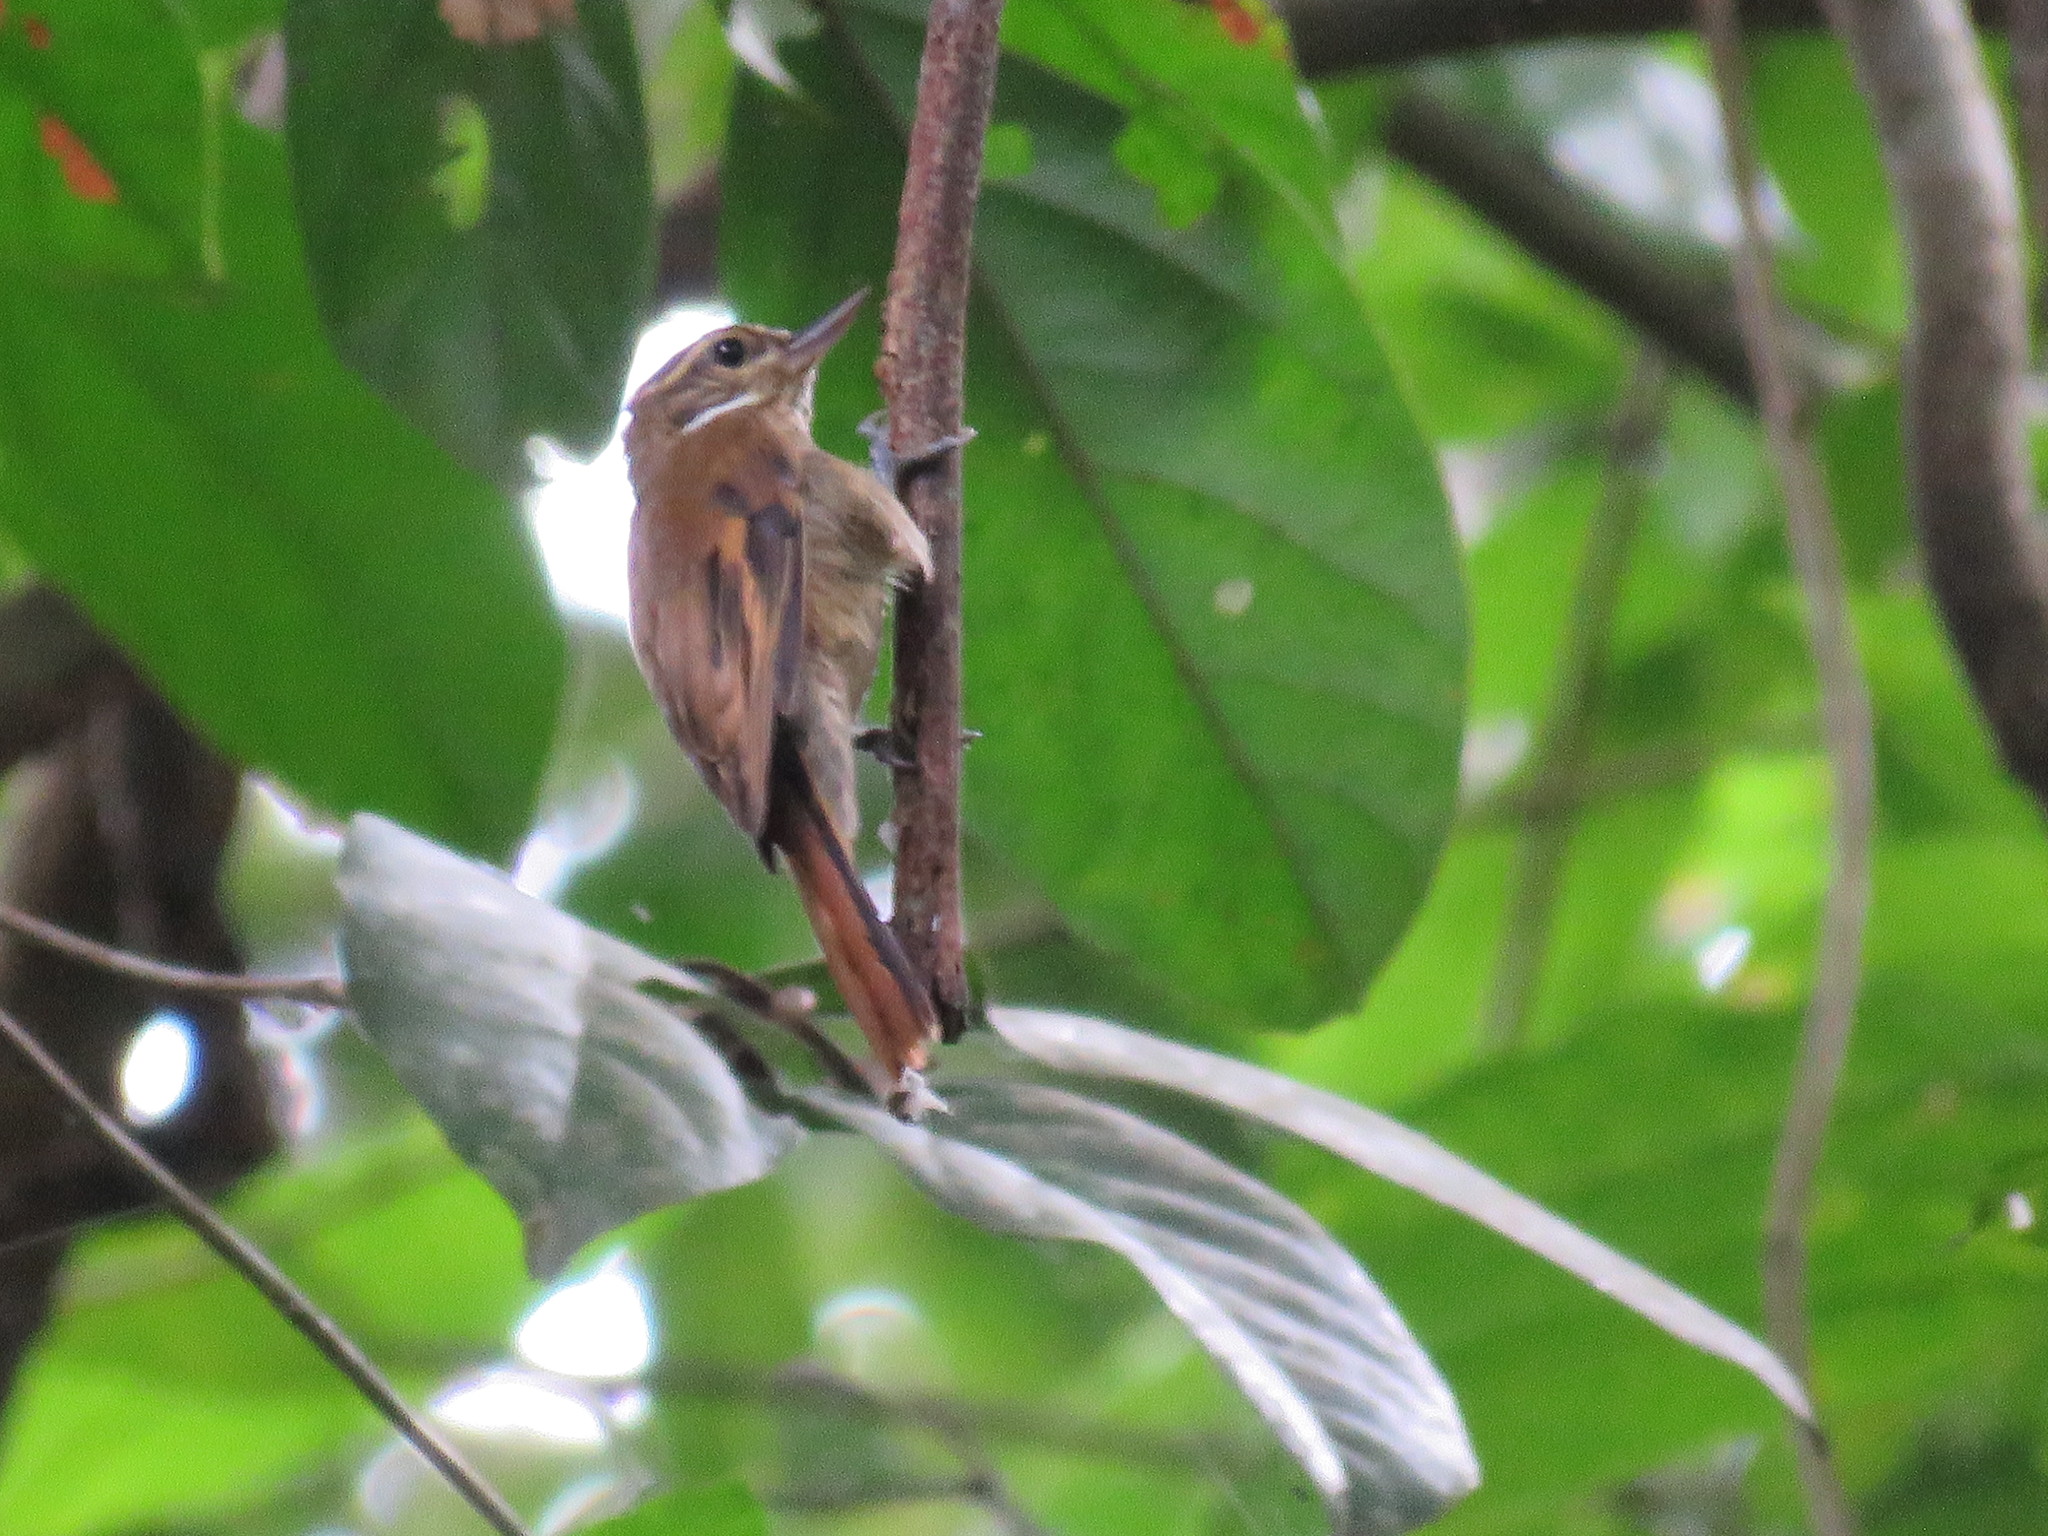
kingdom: Animalia
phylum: Chordata
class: Aves
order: Passeriformes
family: Furnariidae
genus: Xenops
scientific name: Xenops minutus
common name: Plain xenops
